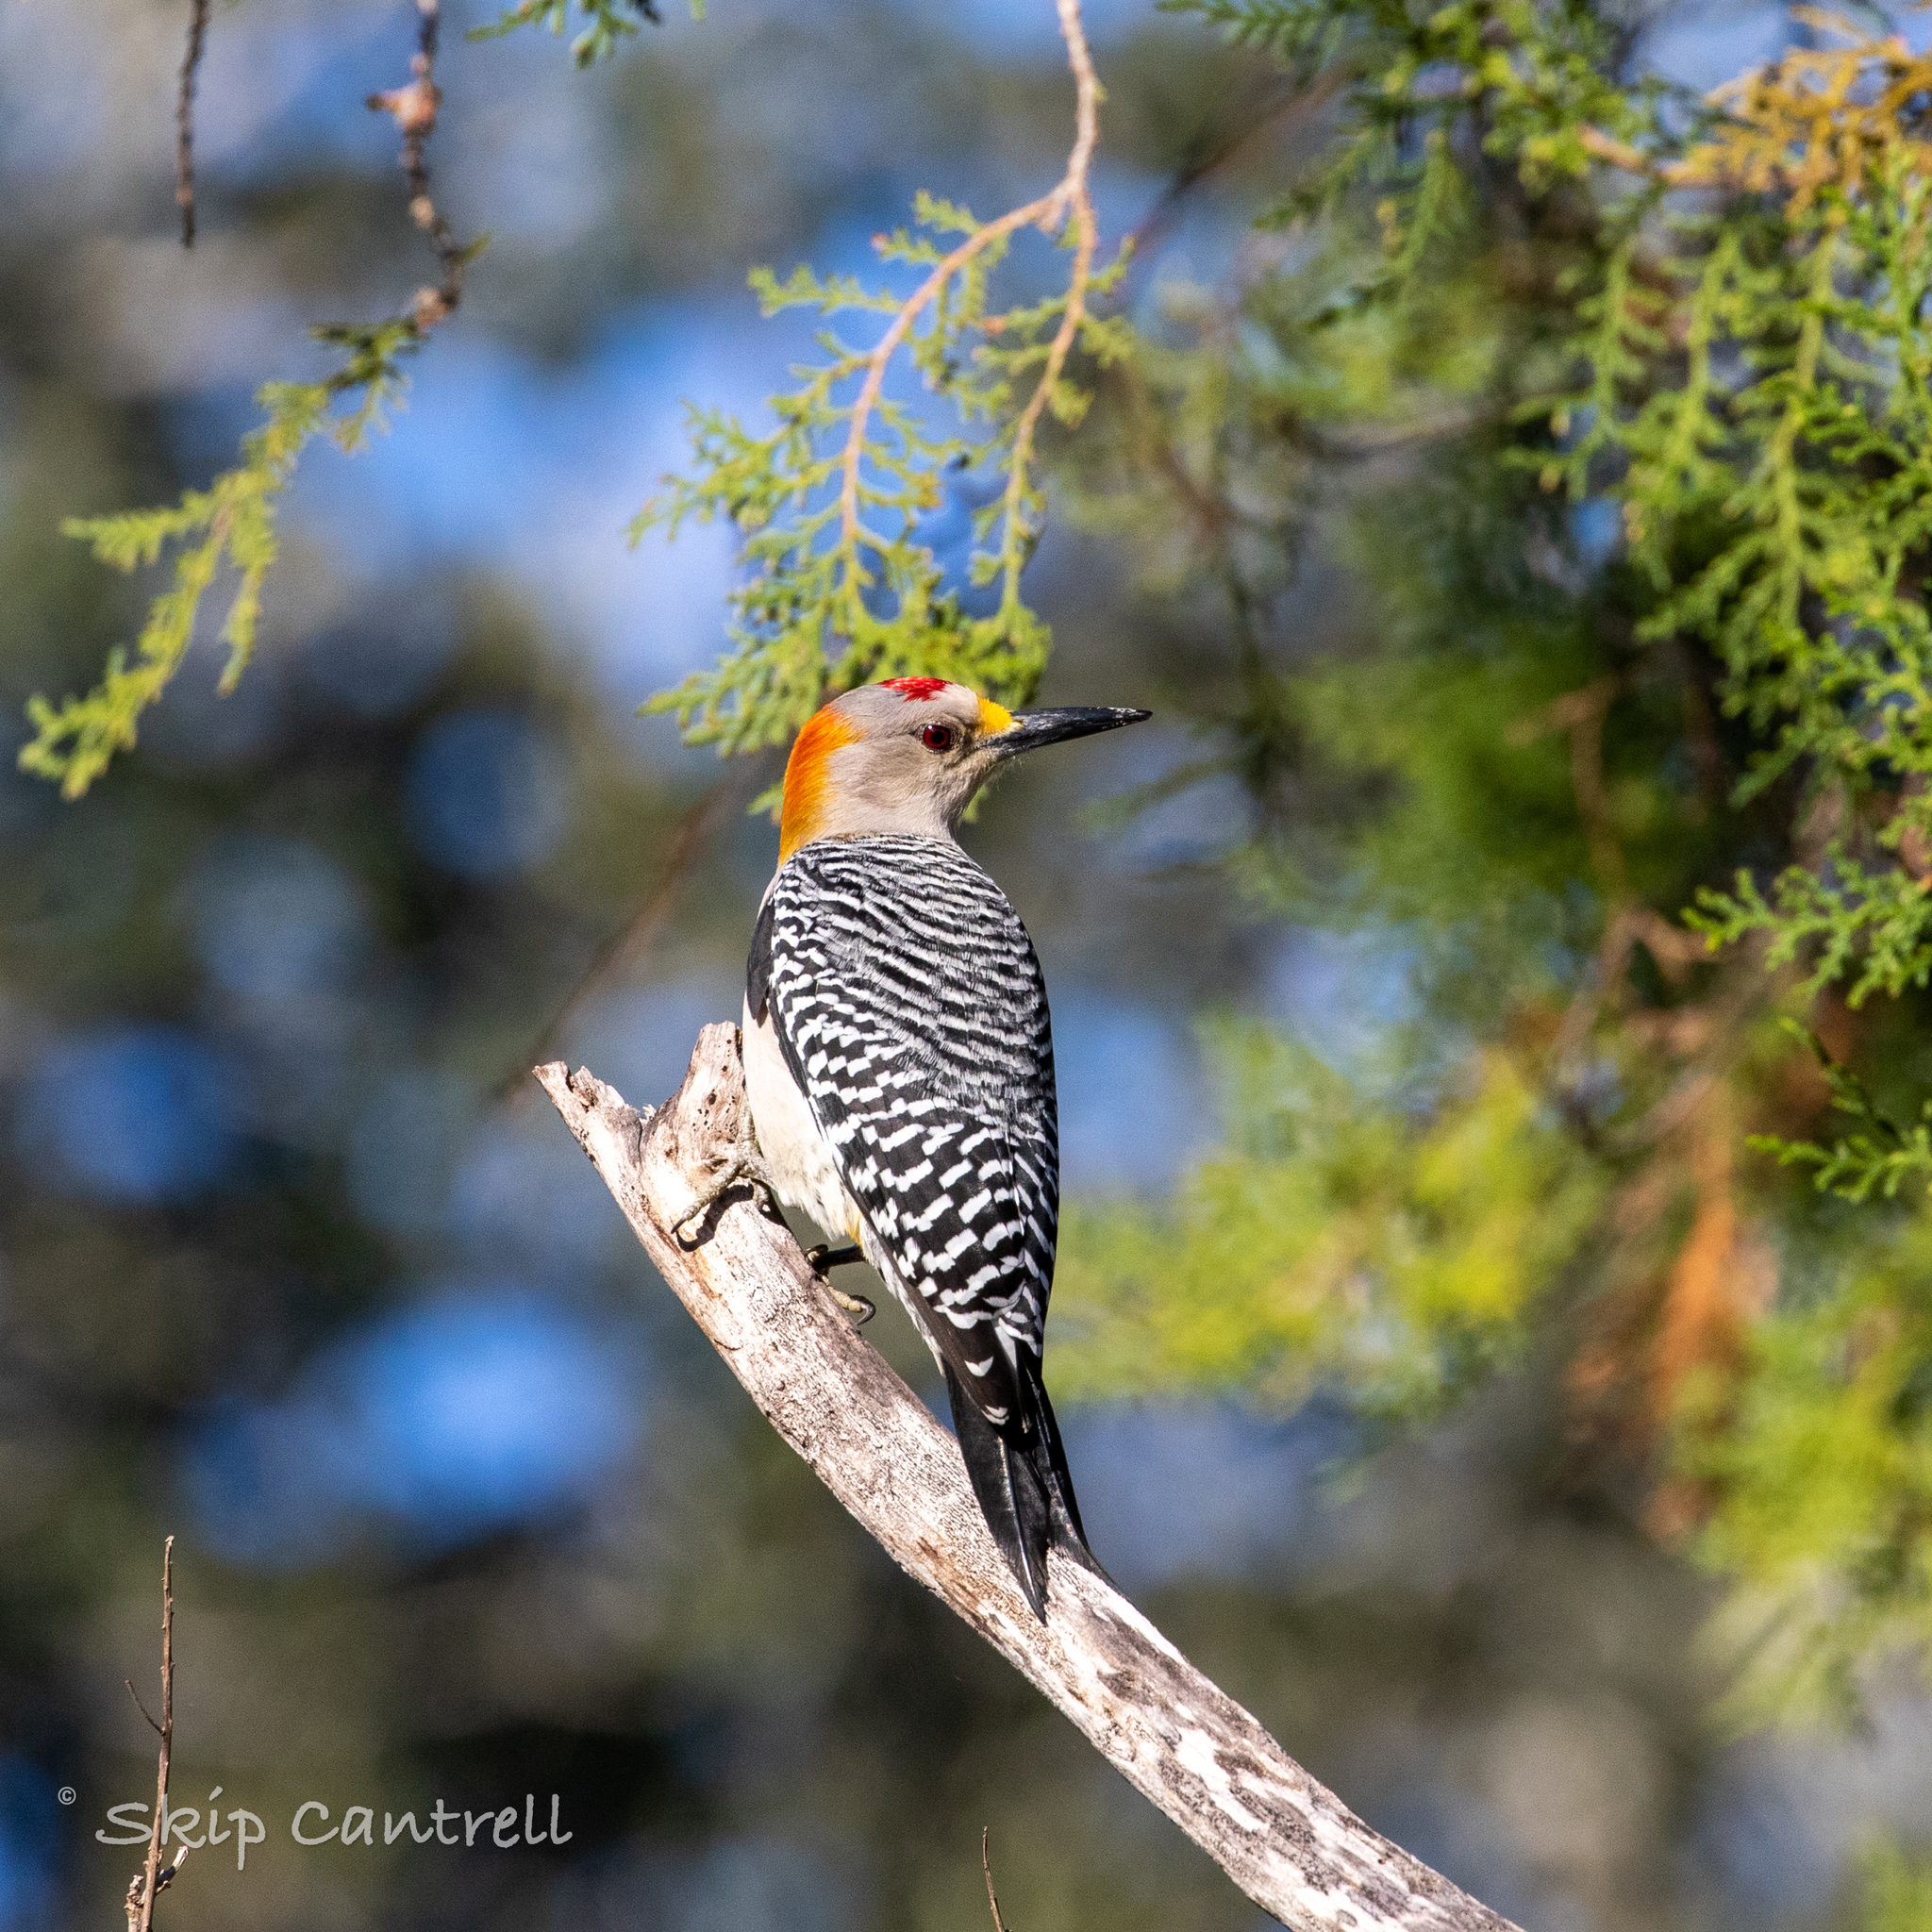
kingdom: Animalia
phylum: Chordata
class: Aves
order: Piciformes
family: Picidae
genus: Melanerpes
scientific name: Melanerpes aurifrons
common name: Golden-fronted woodpecker
